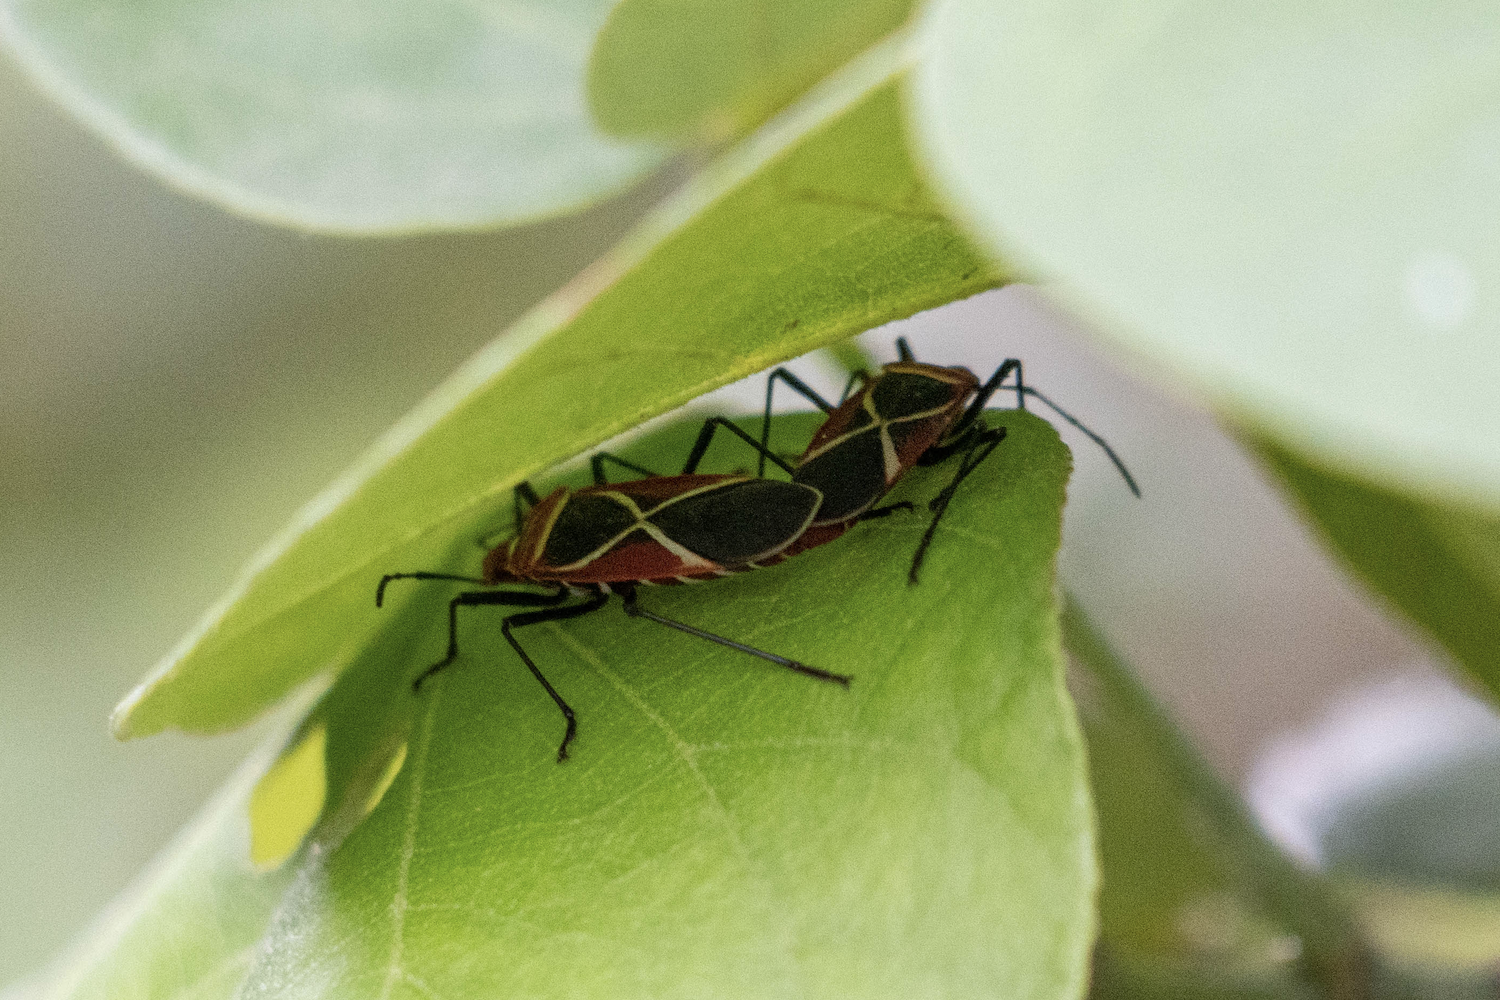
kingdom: Animalia
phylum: Arthropoda
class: Insecta
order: Hemiptera
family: Pyrrhocoridae
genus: Dysdercus
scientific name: Dysdercus decussatus
